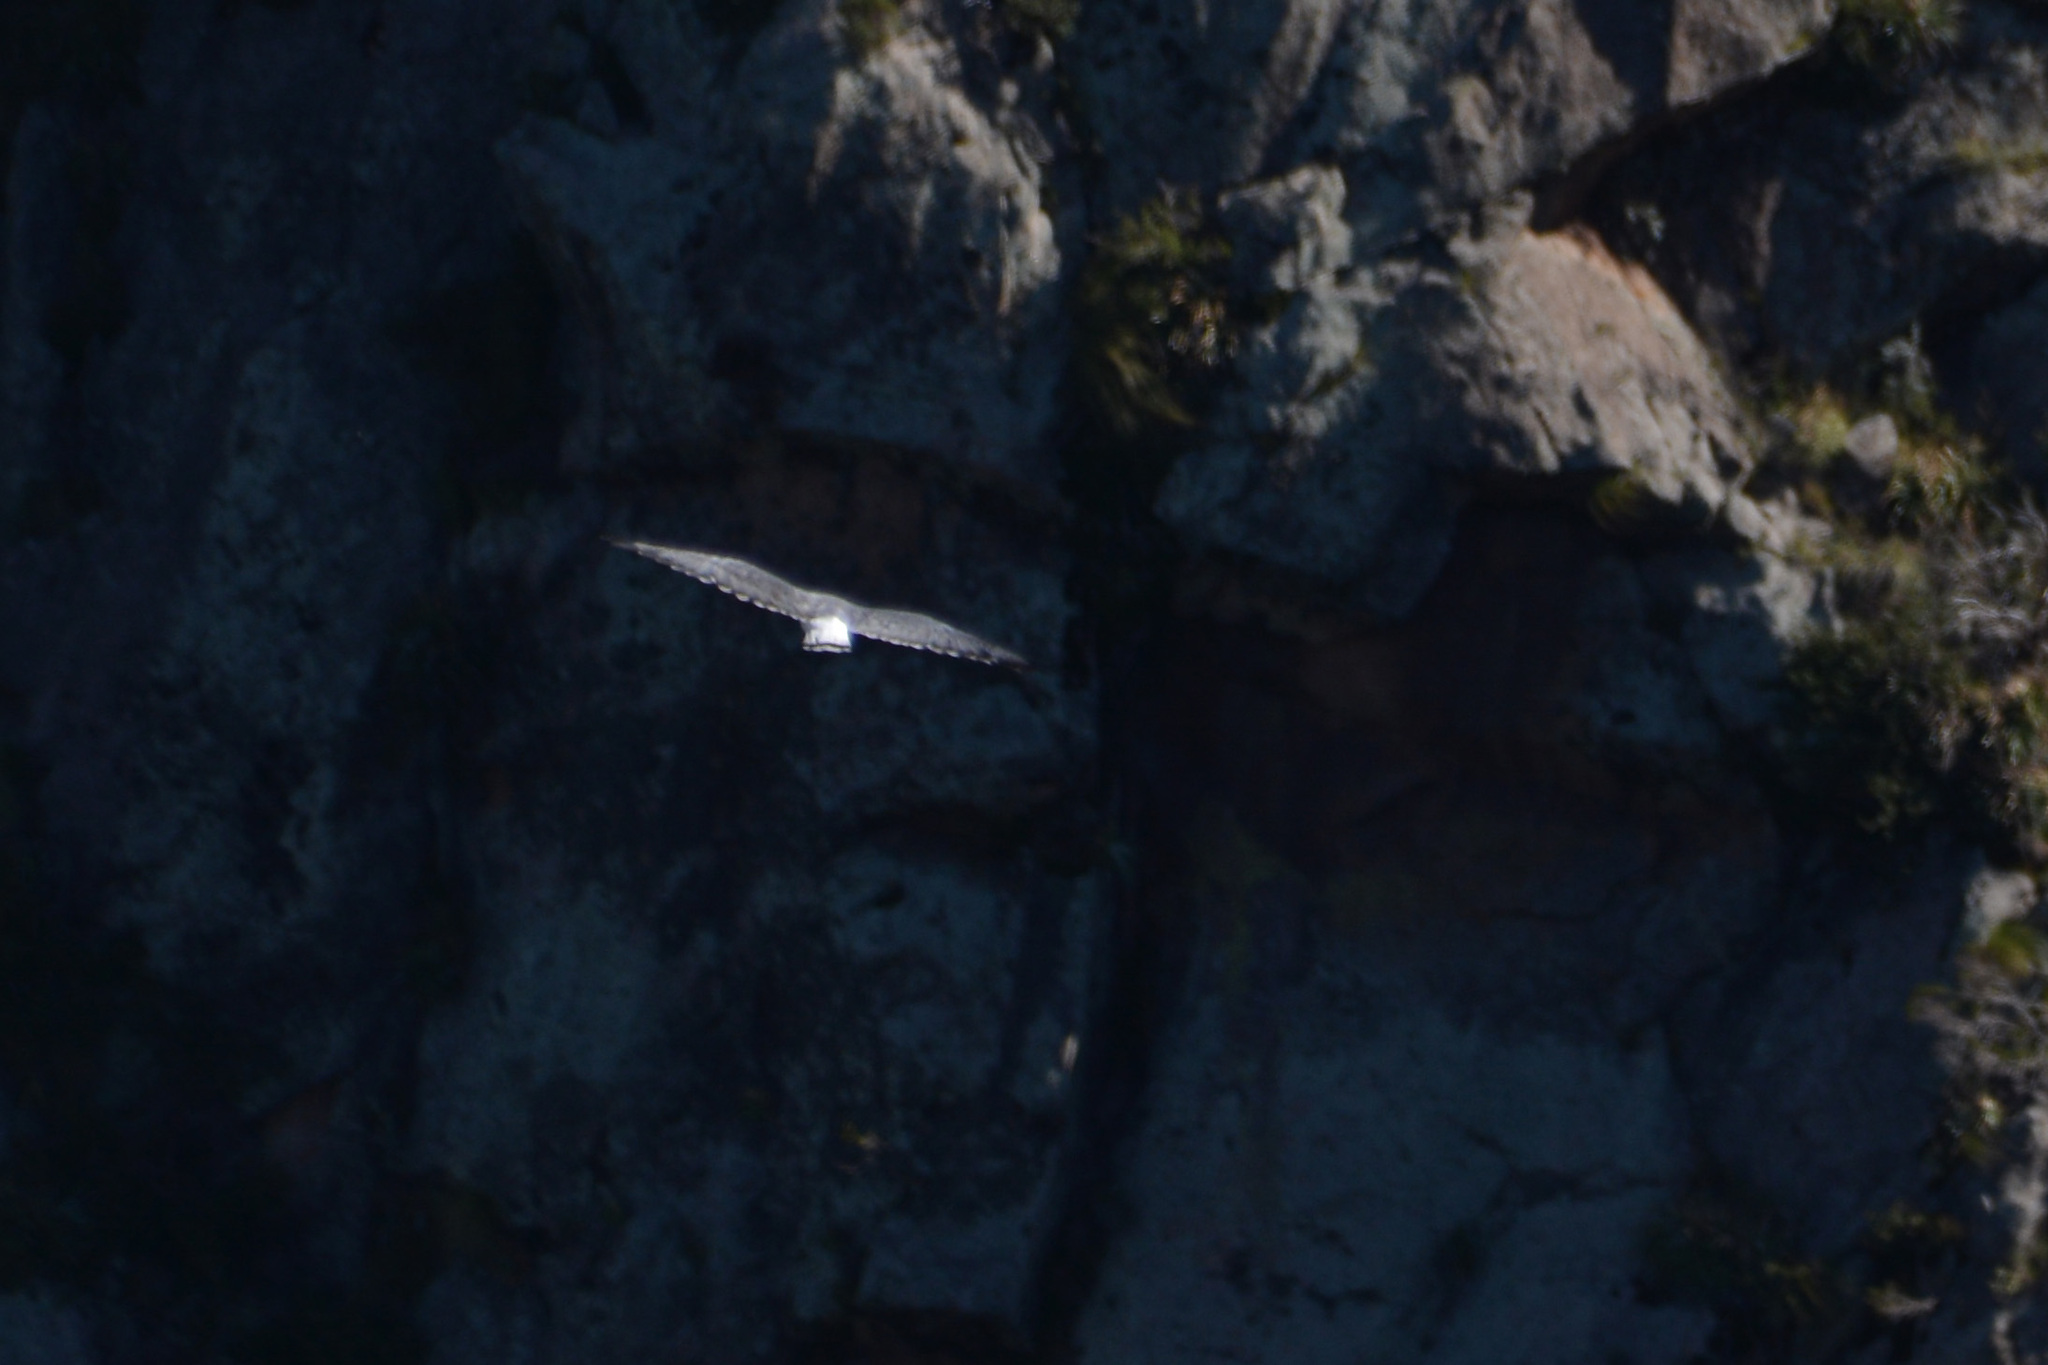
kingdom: Animalia
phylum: Chordata
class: Aves
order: Accipitriformes
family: Accipitridae
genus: Buteo
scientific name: Buteo polyosoma
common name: Variable hawk
